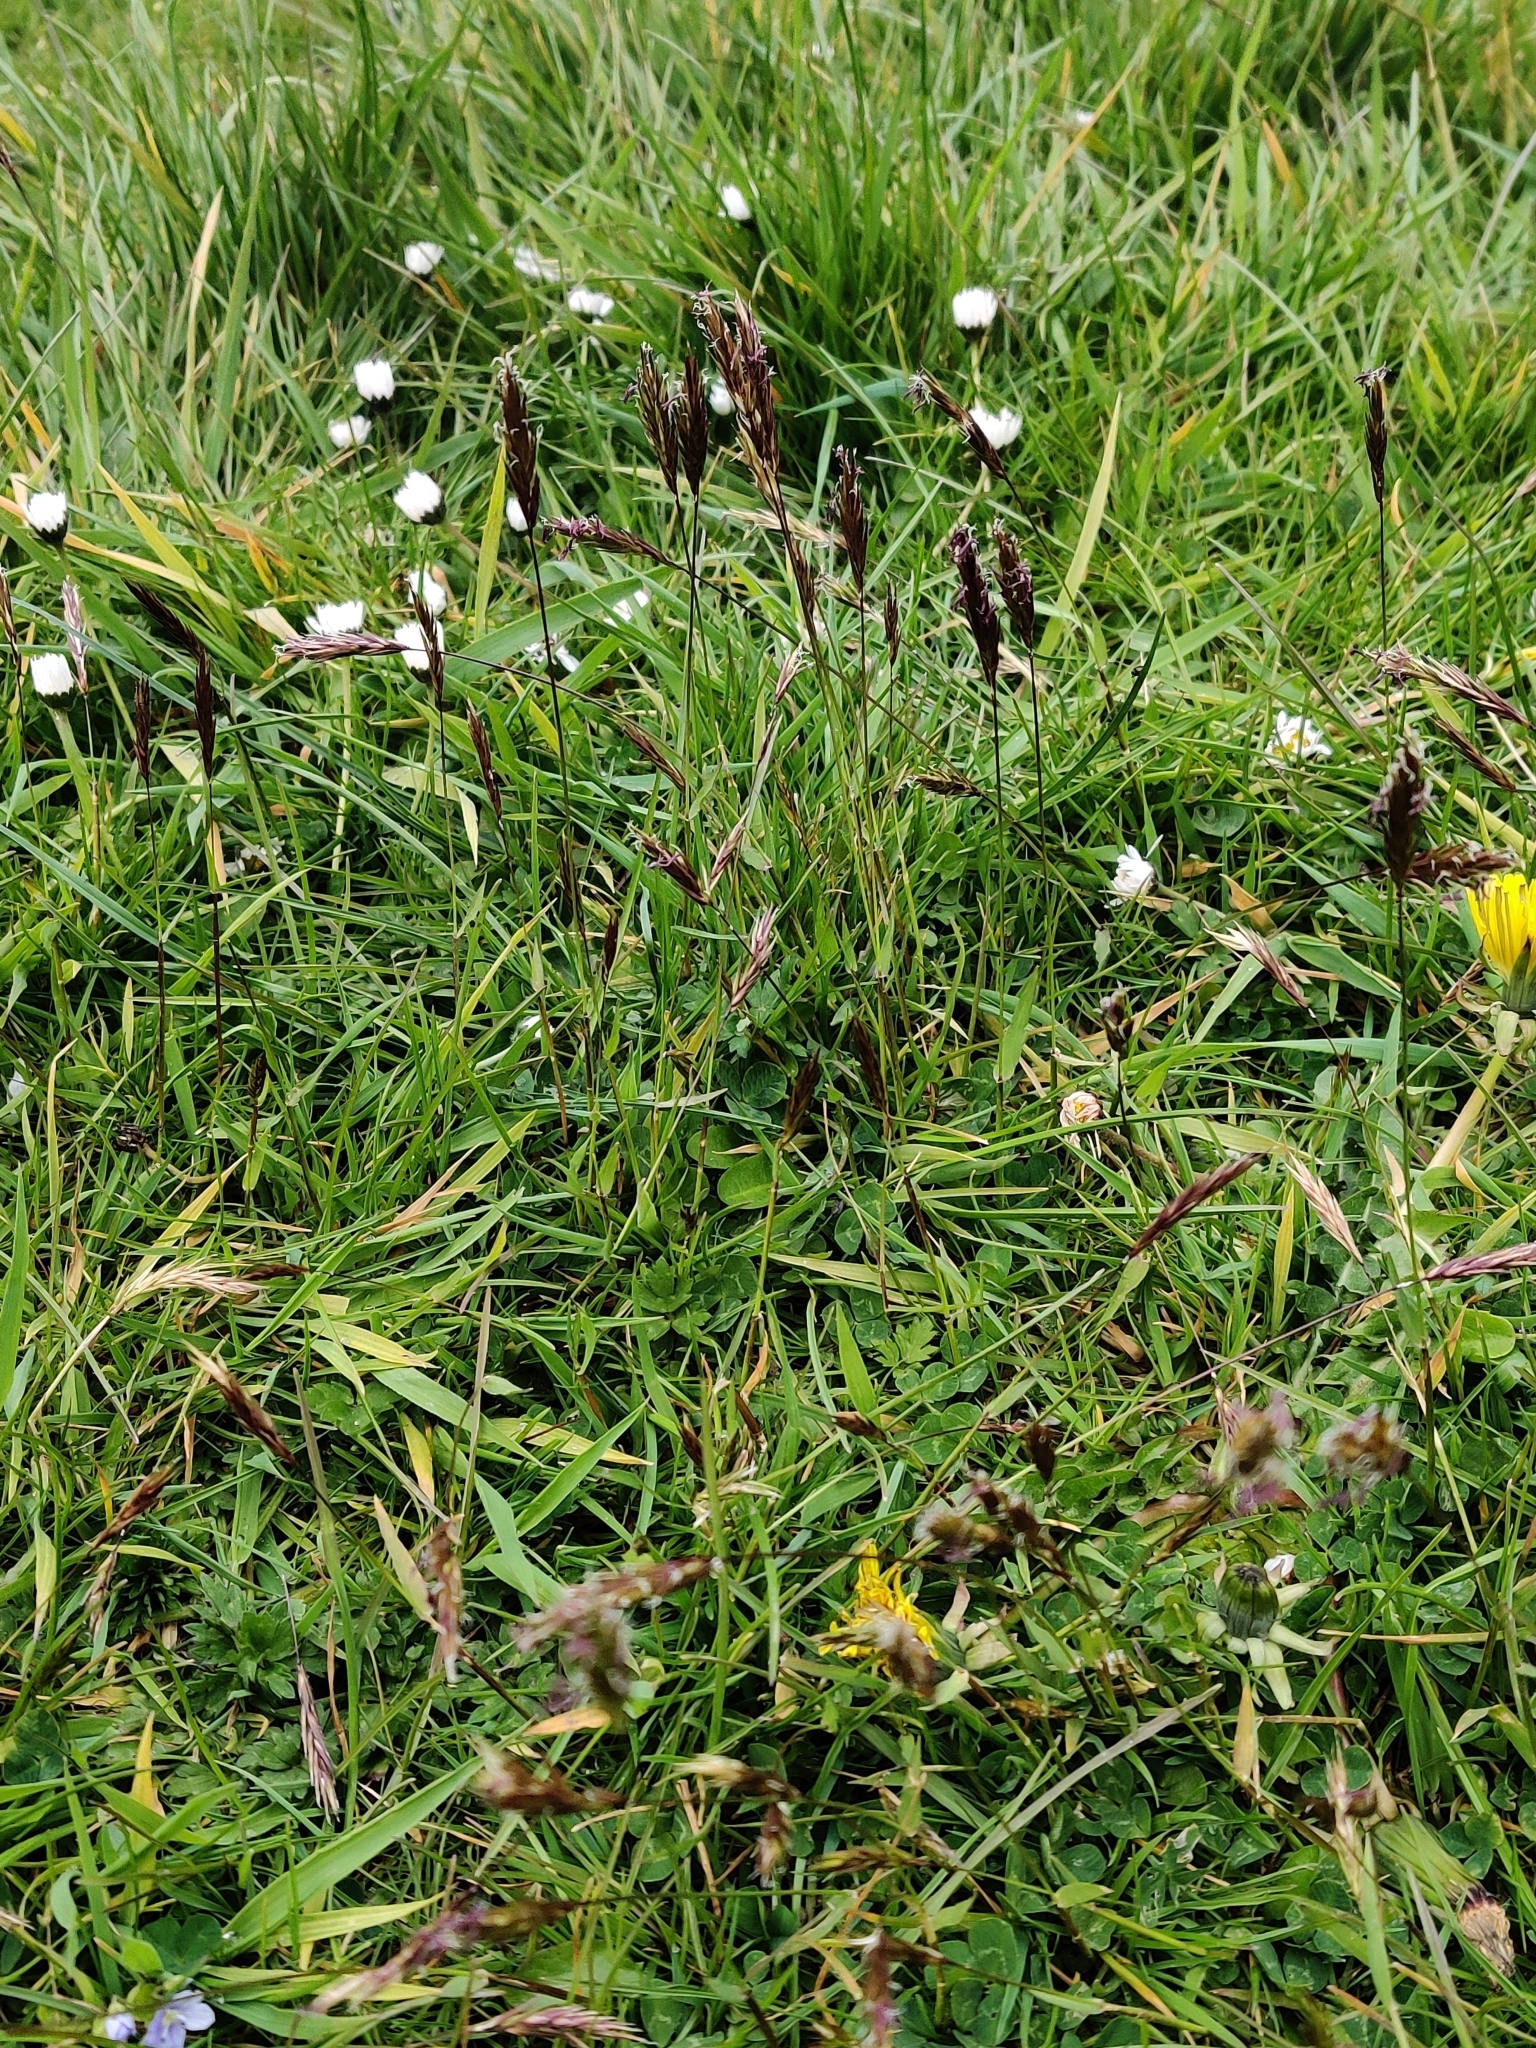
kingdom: Plantae
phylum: Tracheophyta
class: Magnoliopsida
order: Asterales
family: Asteraceae
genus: Bellis
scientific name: Bellis perennis
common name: Lawndaisy
